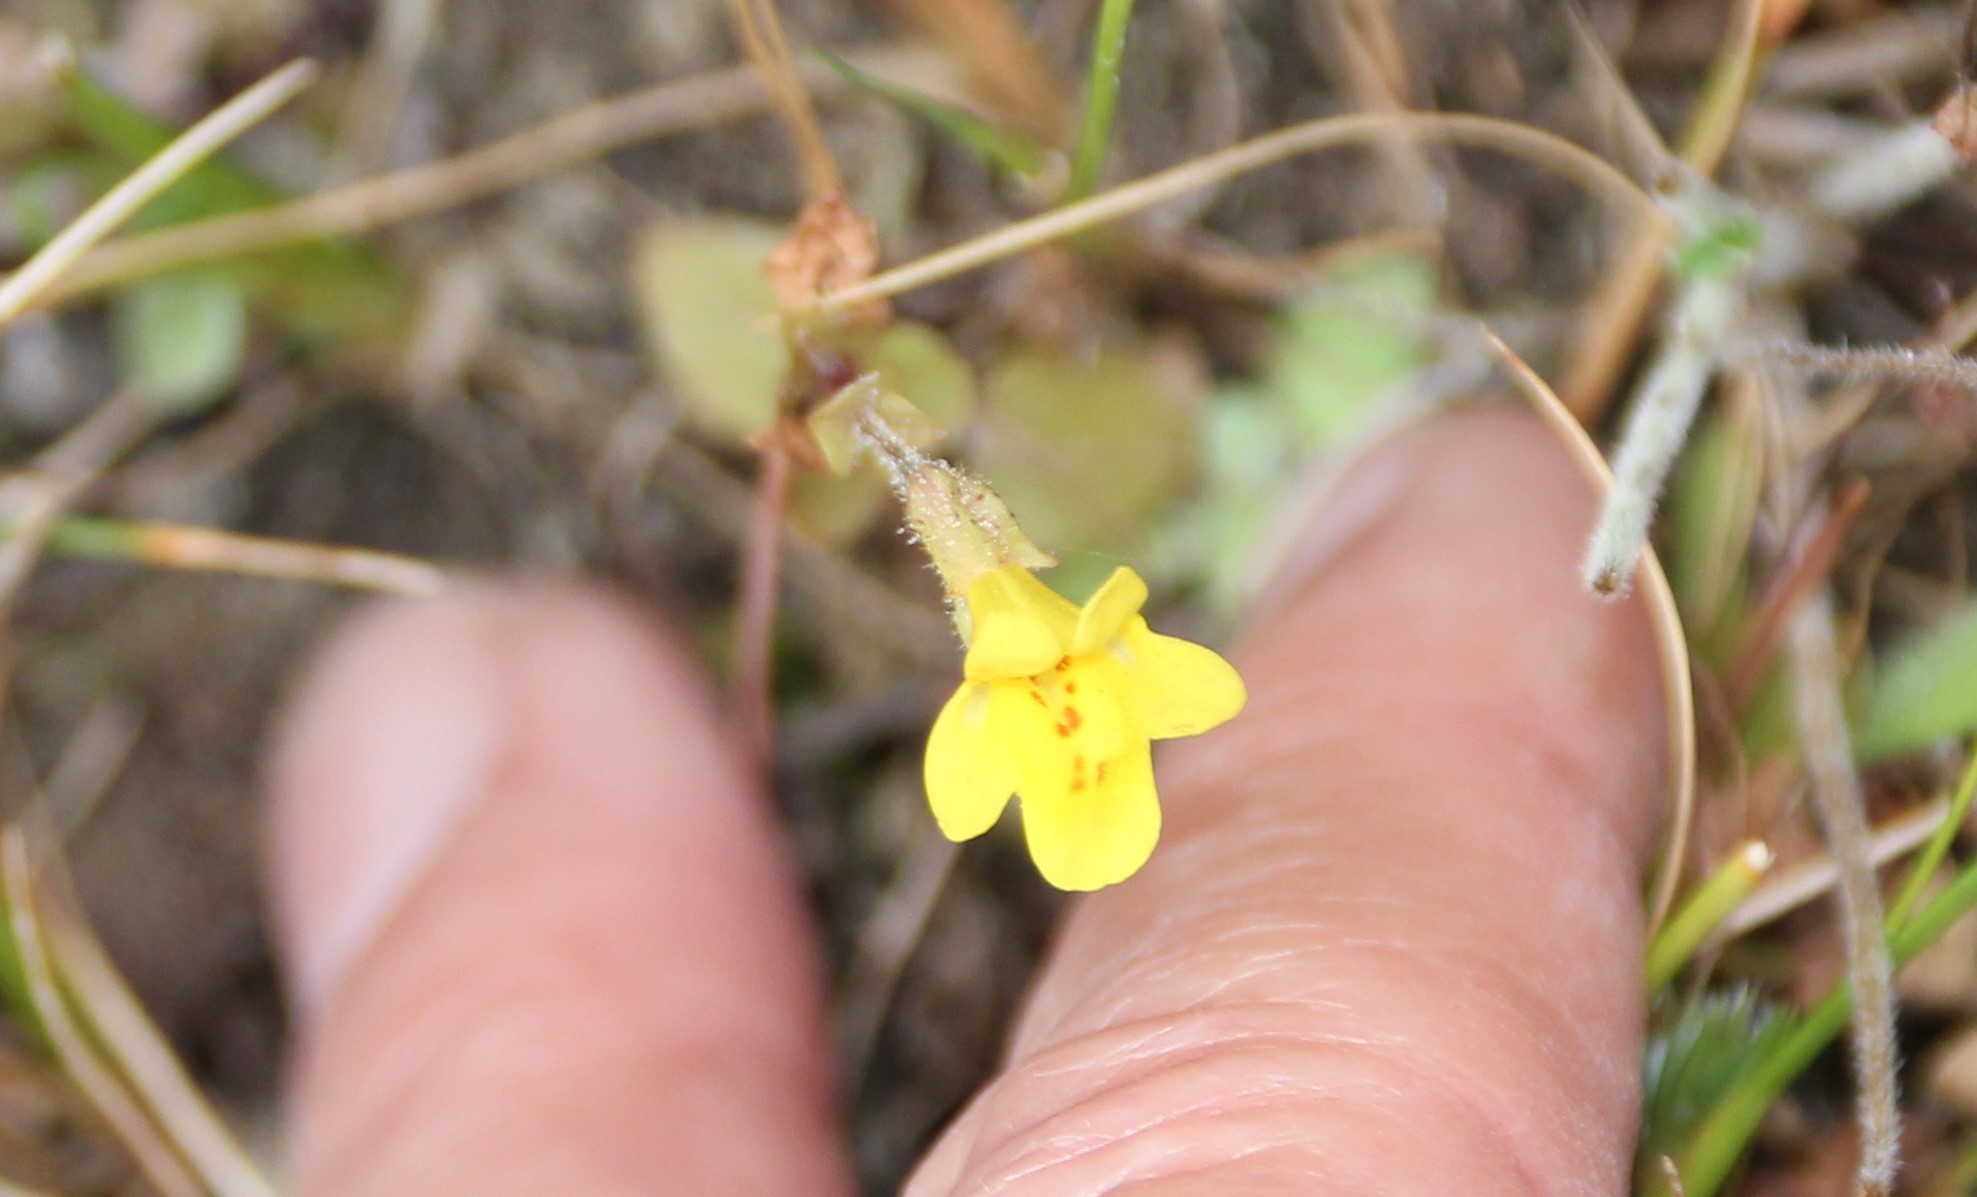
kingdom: Plantae
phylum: Tracheophyta
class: Magnoliopsida
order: Lamiales
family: Phrymaceae
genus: Erythranthe
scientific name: Erythranthe guttata
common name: Monkeyflower
